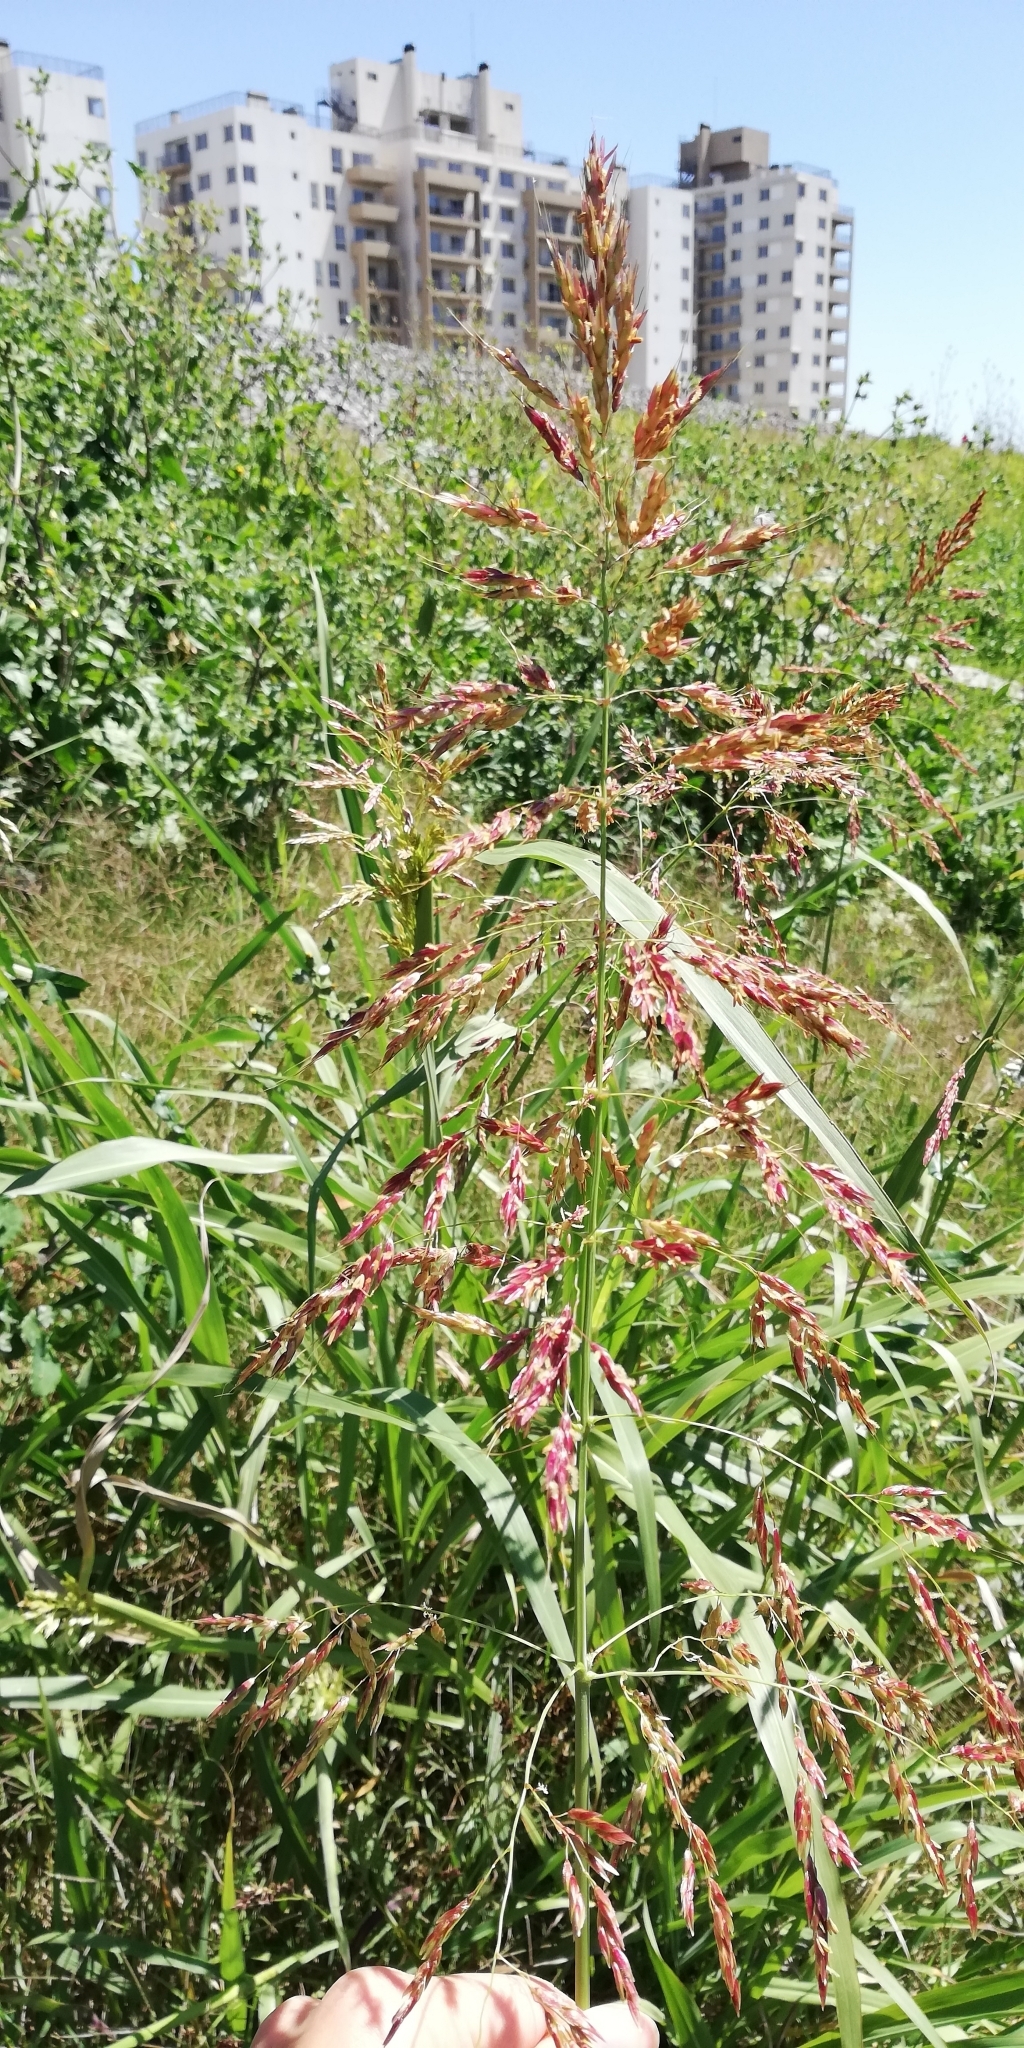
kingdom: Plantae
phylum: Tracheophyta
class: Liliopsida
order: Poales
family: Poaceae
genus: Sorghum
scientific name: Sorghum halepense
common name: Johnson-grass
